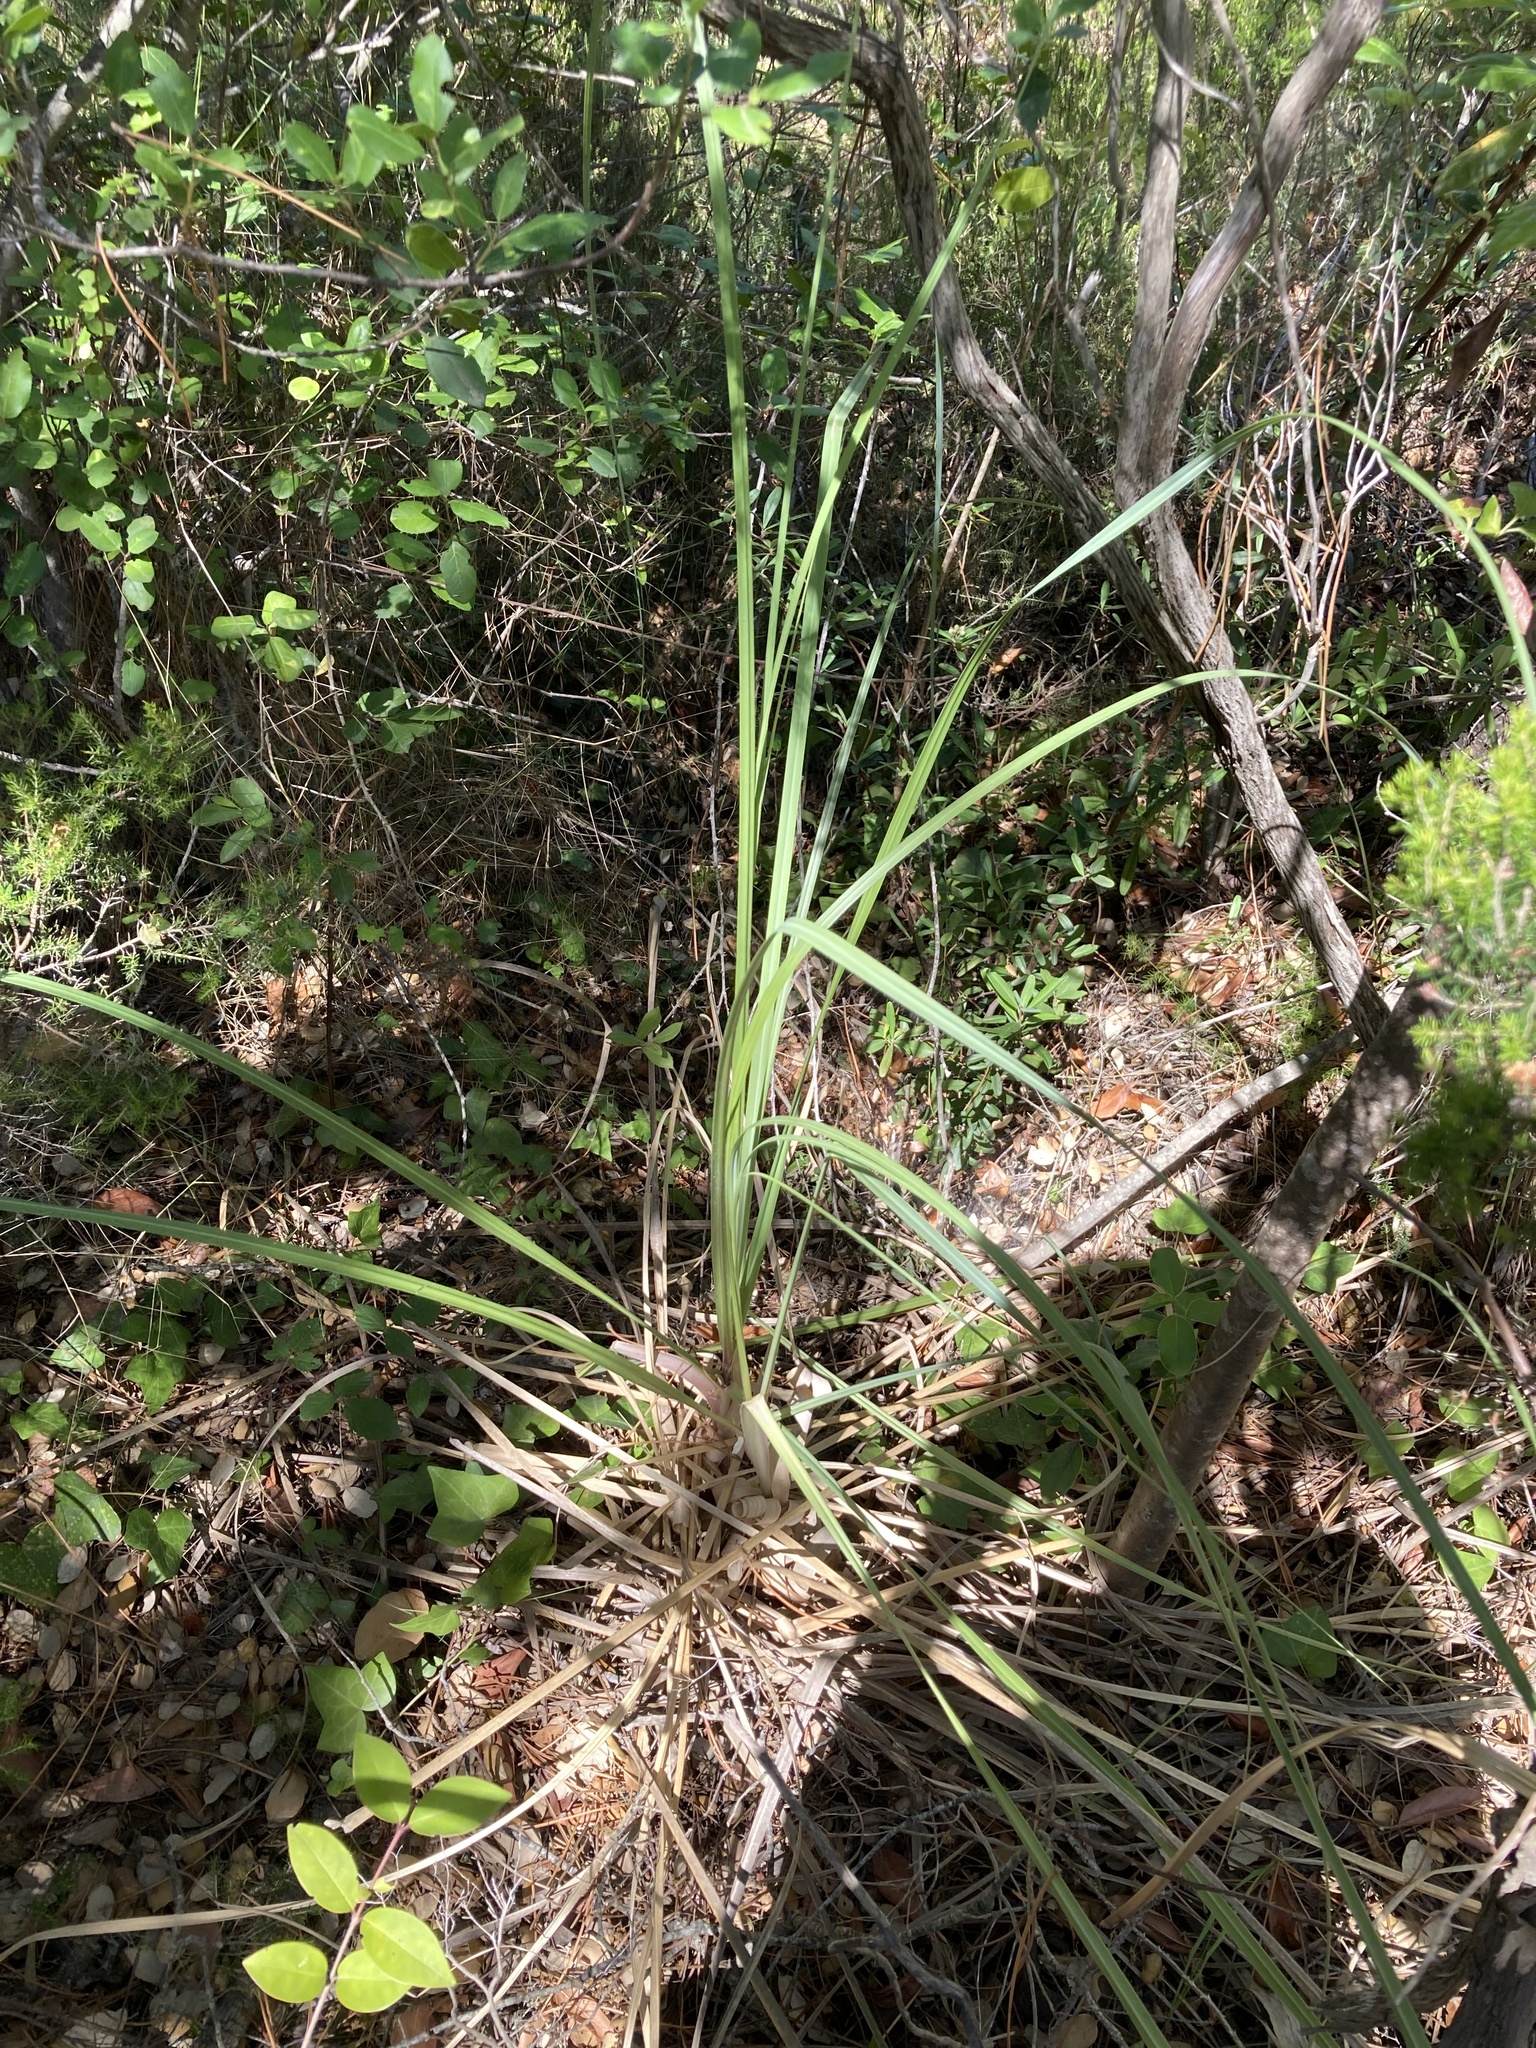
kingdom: Plantae
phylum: Tracheophyta
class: Liliopsida
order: Poales
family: Poaceae
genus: Cortaderia
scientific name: Cortaderia selloana
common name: Uruguayan pampas grass
